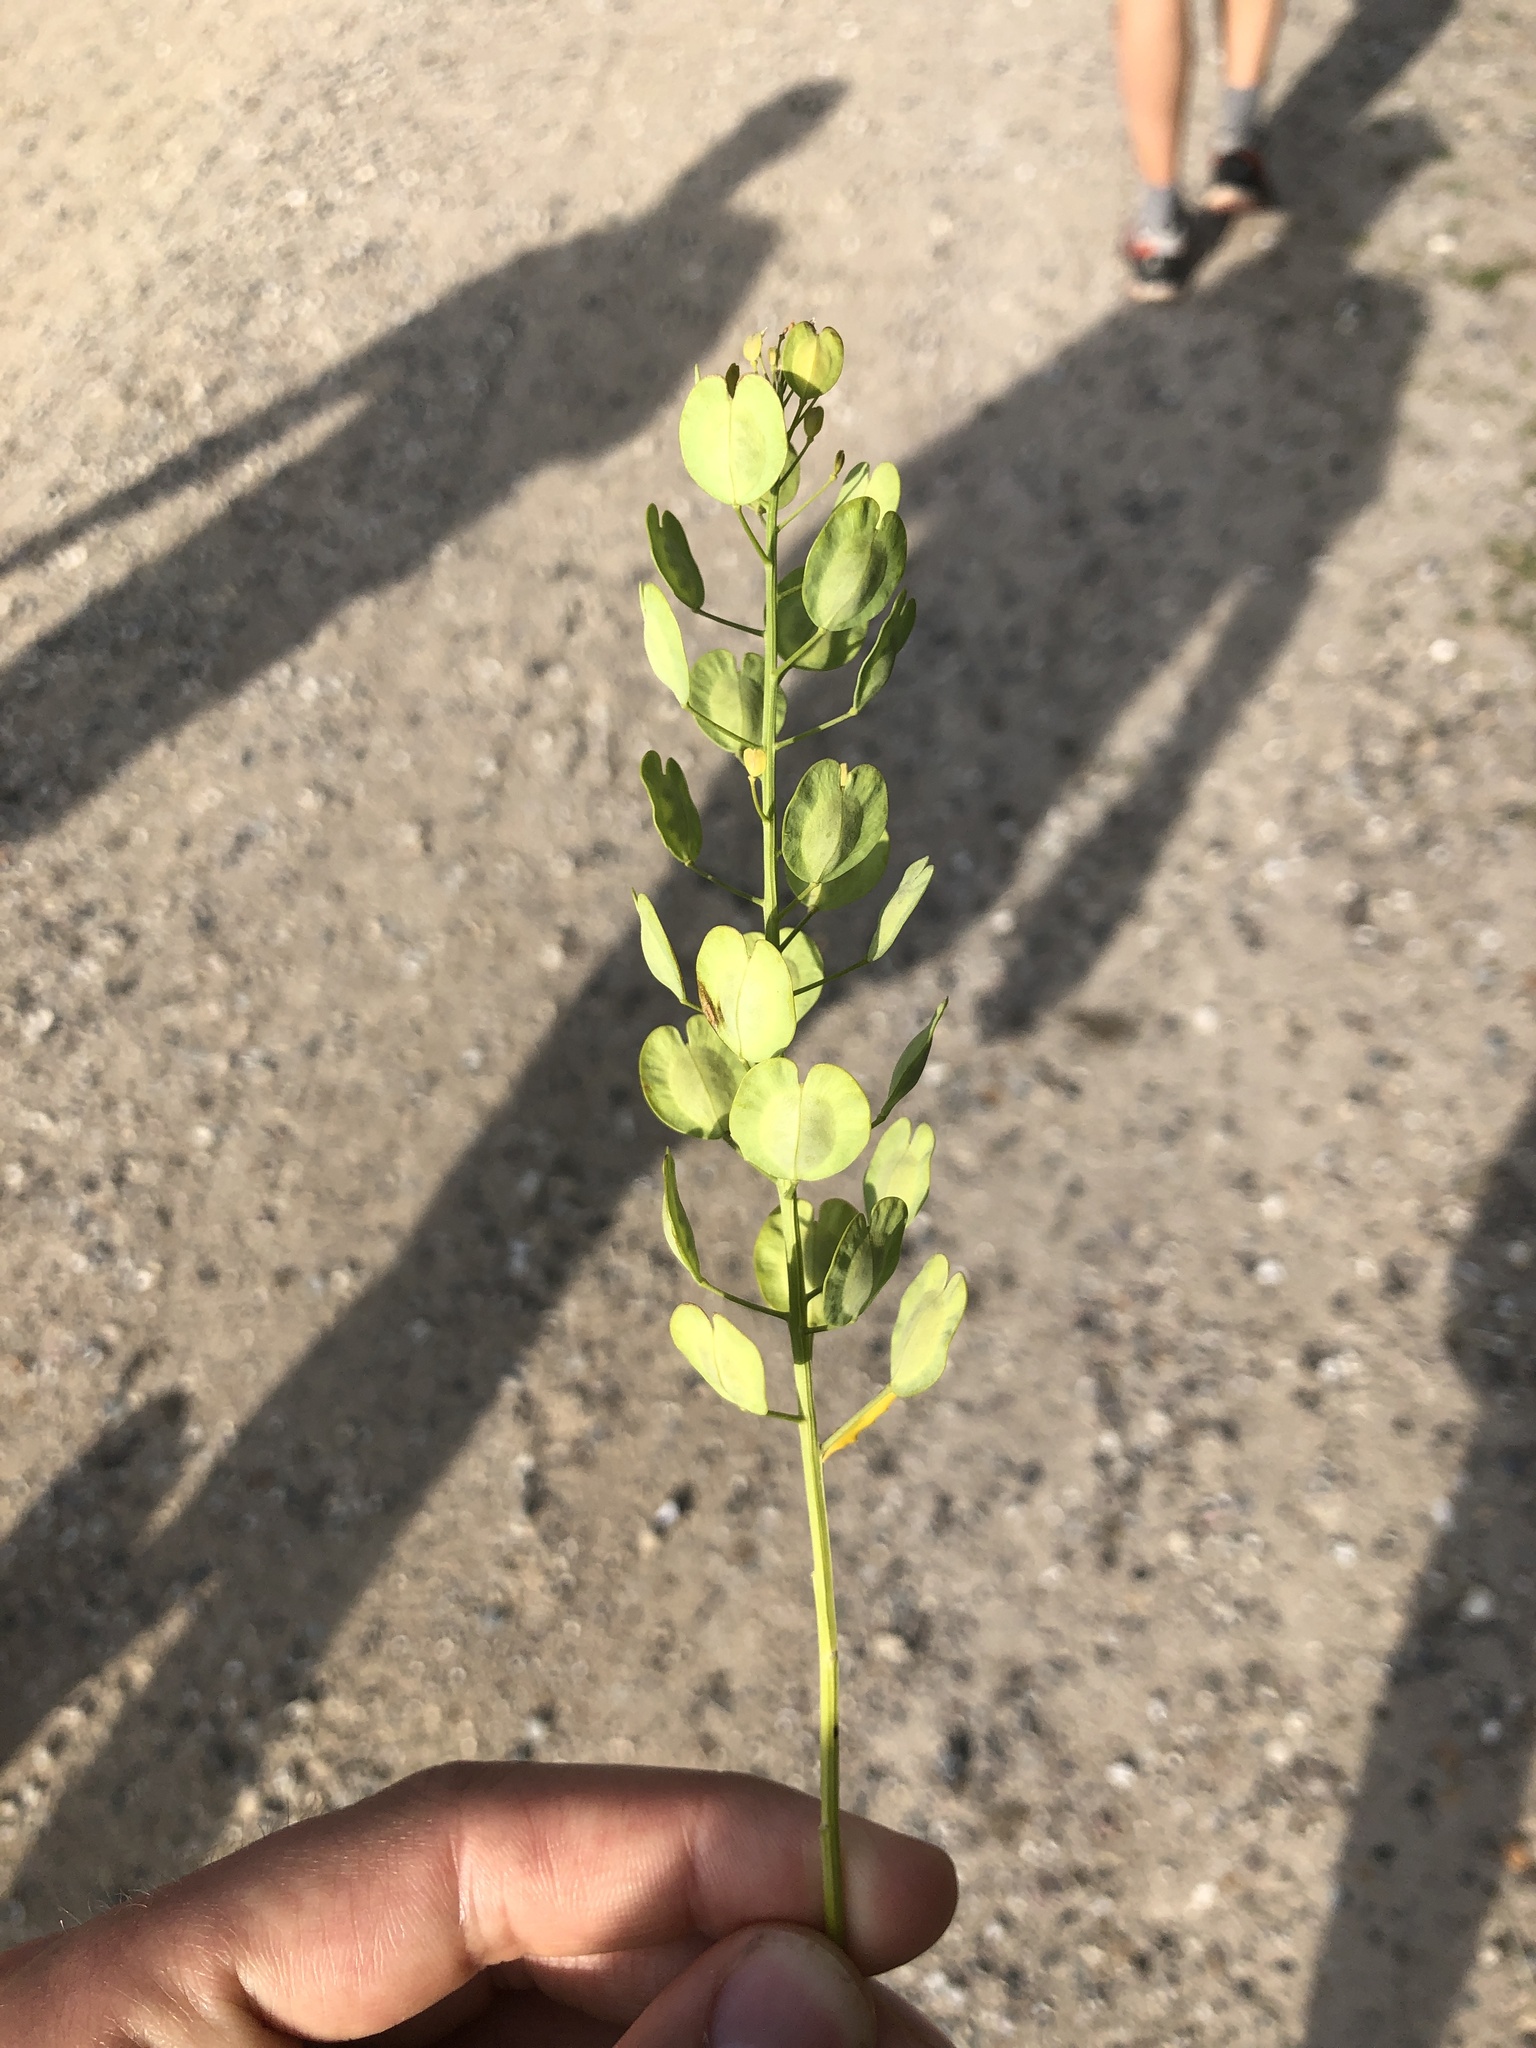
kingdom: Plantae
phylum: Tracheophyta
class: Magnoliopsida
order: Brassicales
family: Brassicaceae
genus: Thlaspi
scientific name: Thlaspi arvense
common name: Field pennycress
